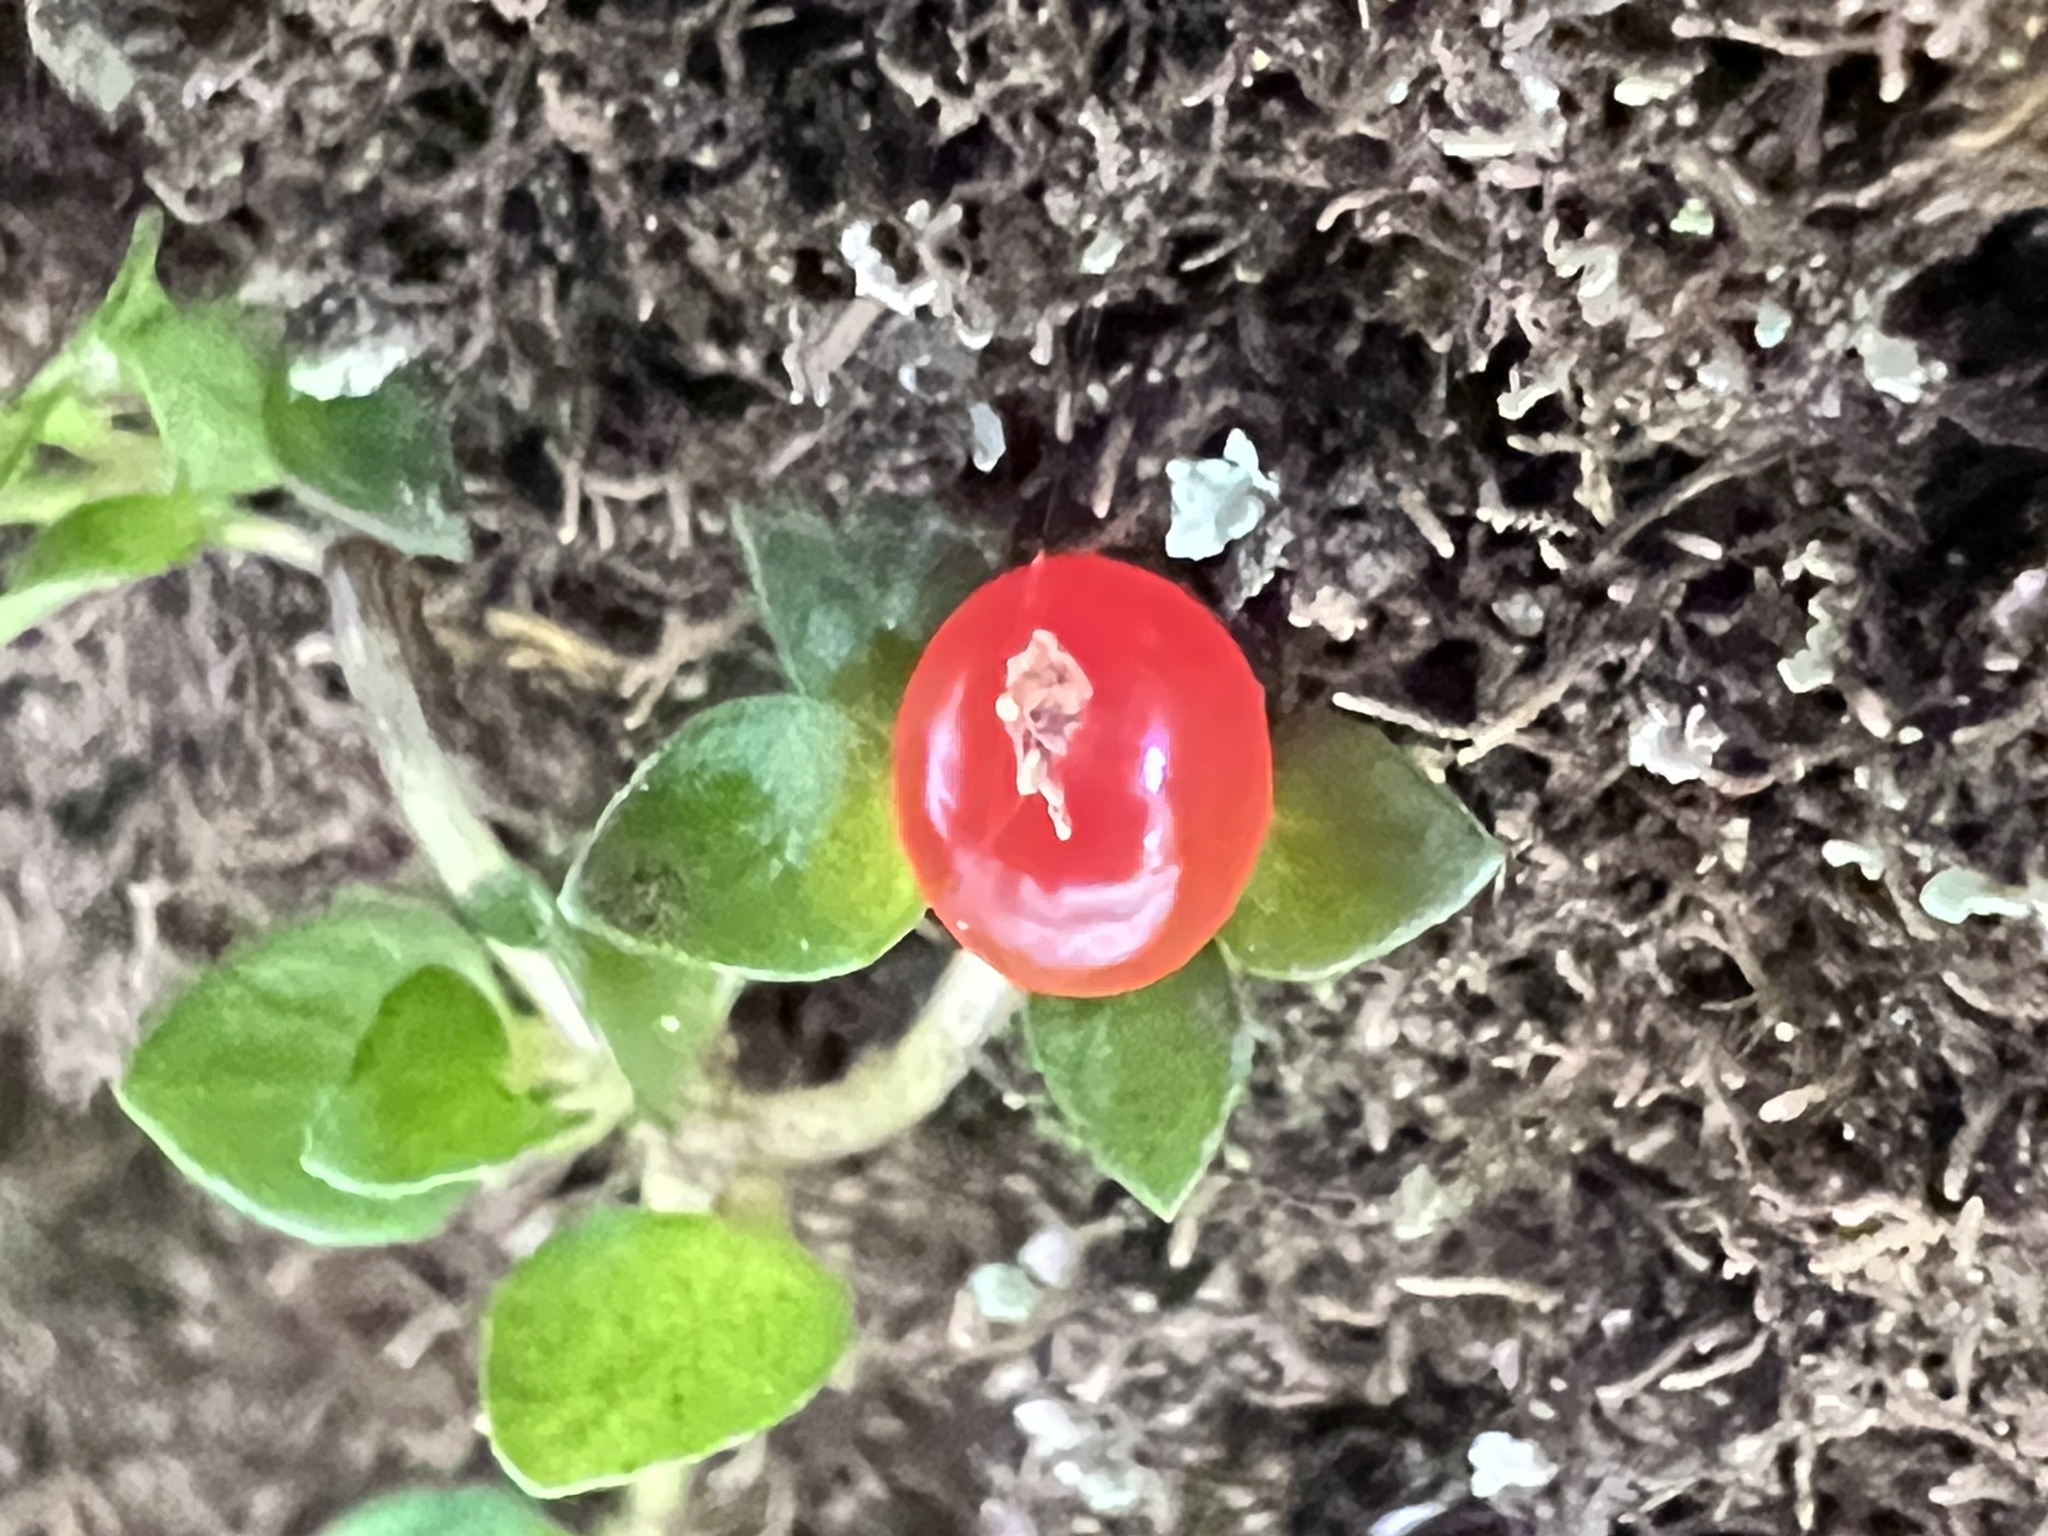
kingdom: Plantae
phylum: Tracheophyta
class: Magnoliopsida
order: Gentianales
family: Rubiaceae
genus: Nertera
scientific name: Nertera granadensis
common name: Beadplant
